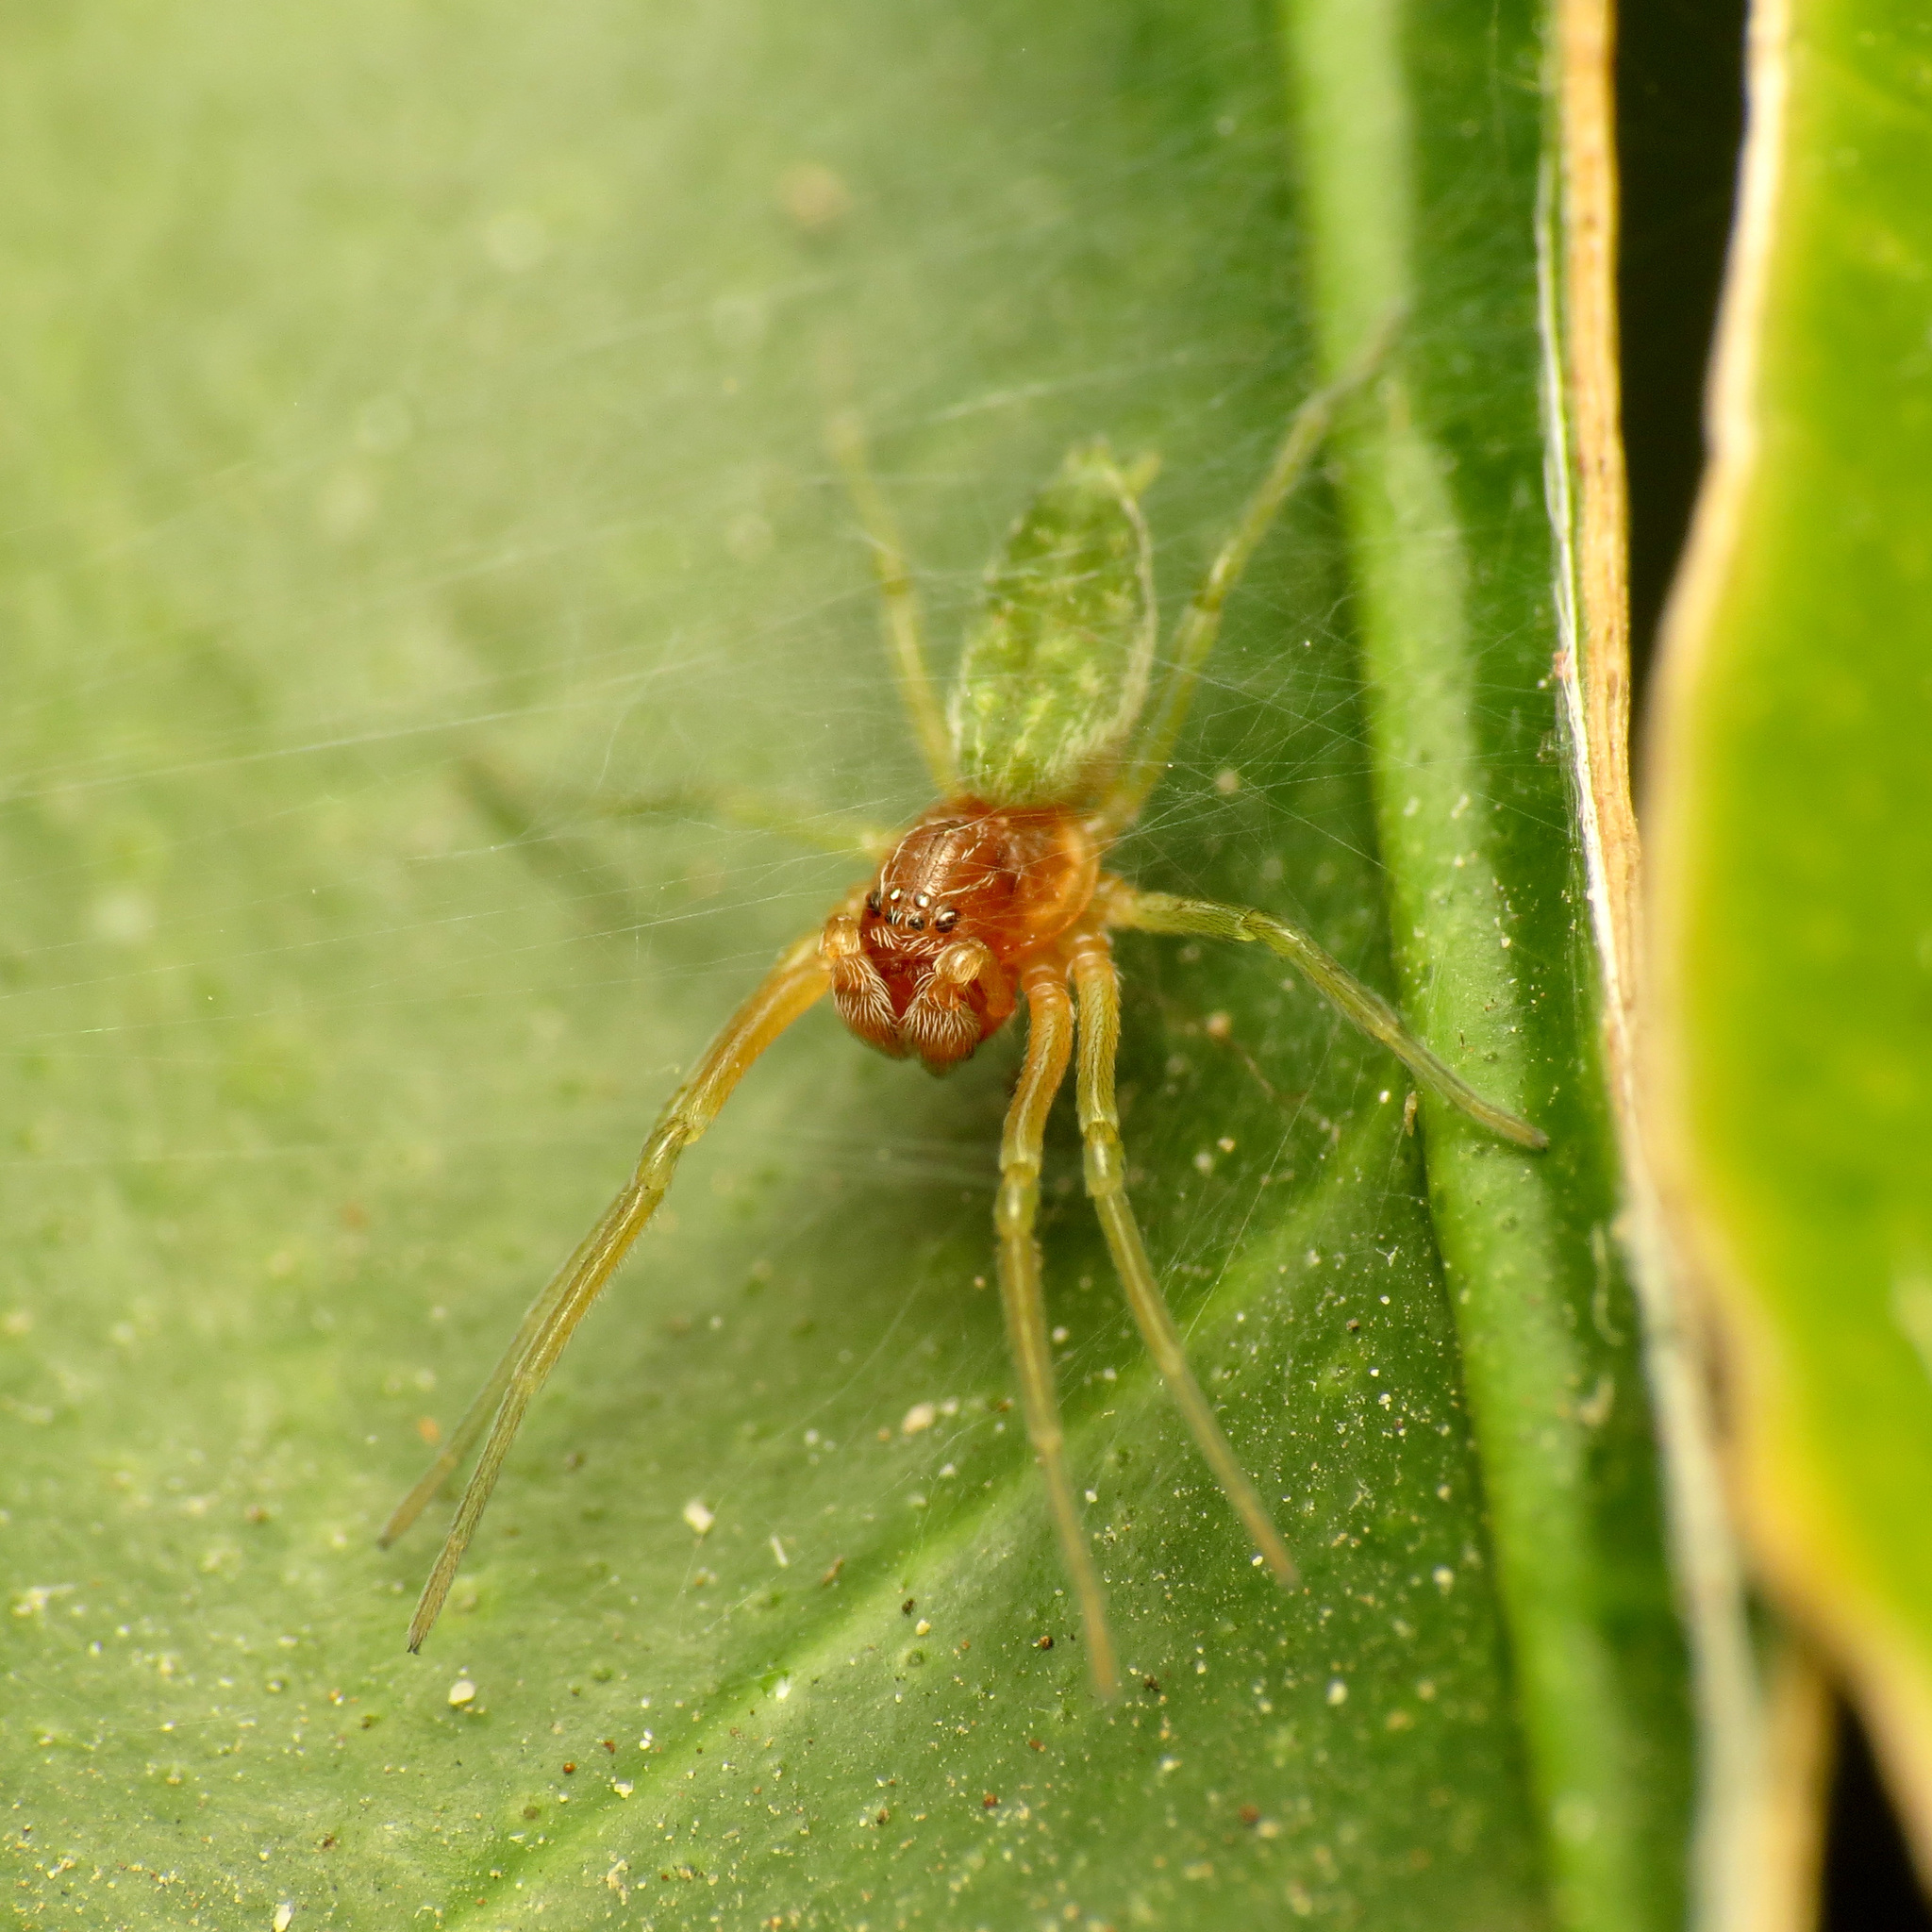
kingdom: Animalia
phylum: Arthropoda
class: Arachnida
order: Araneae
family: Dictynidae
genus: Nigma
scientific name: Nigma walckenaeri
